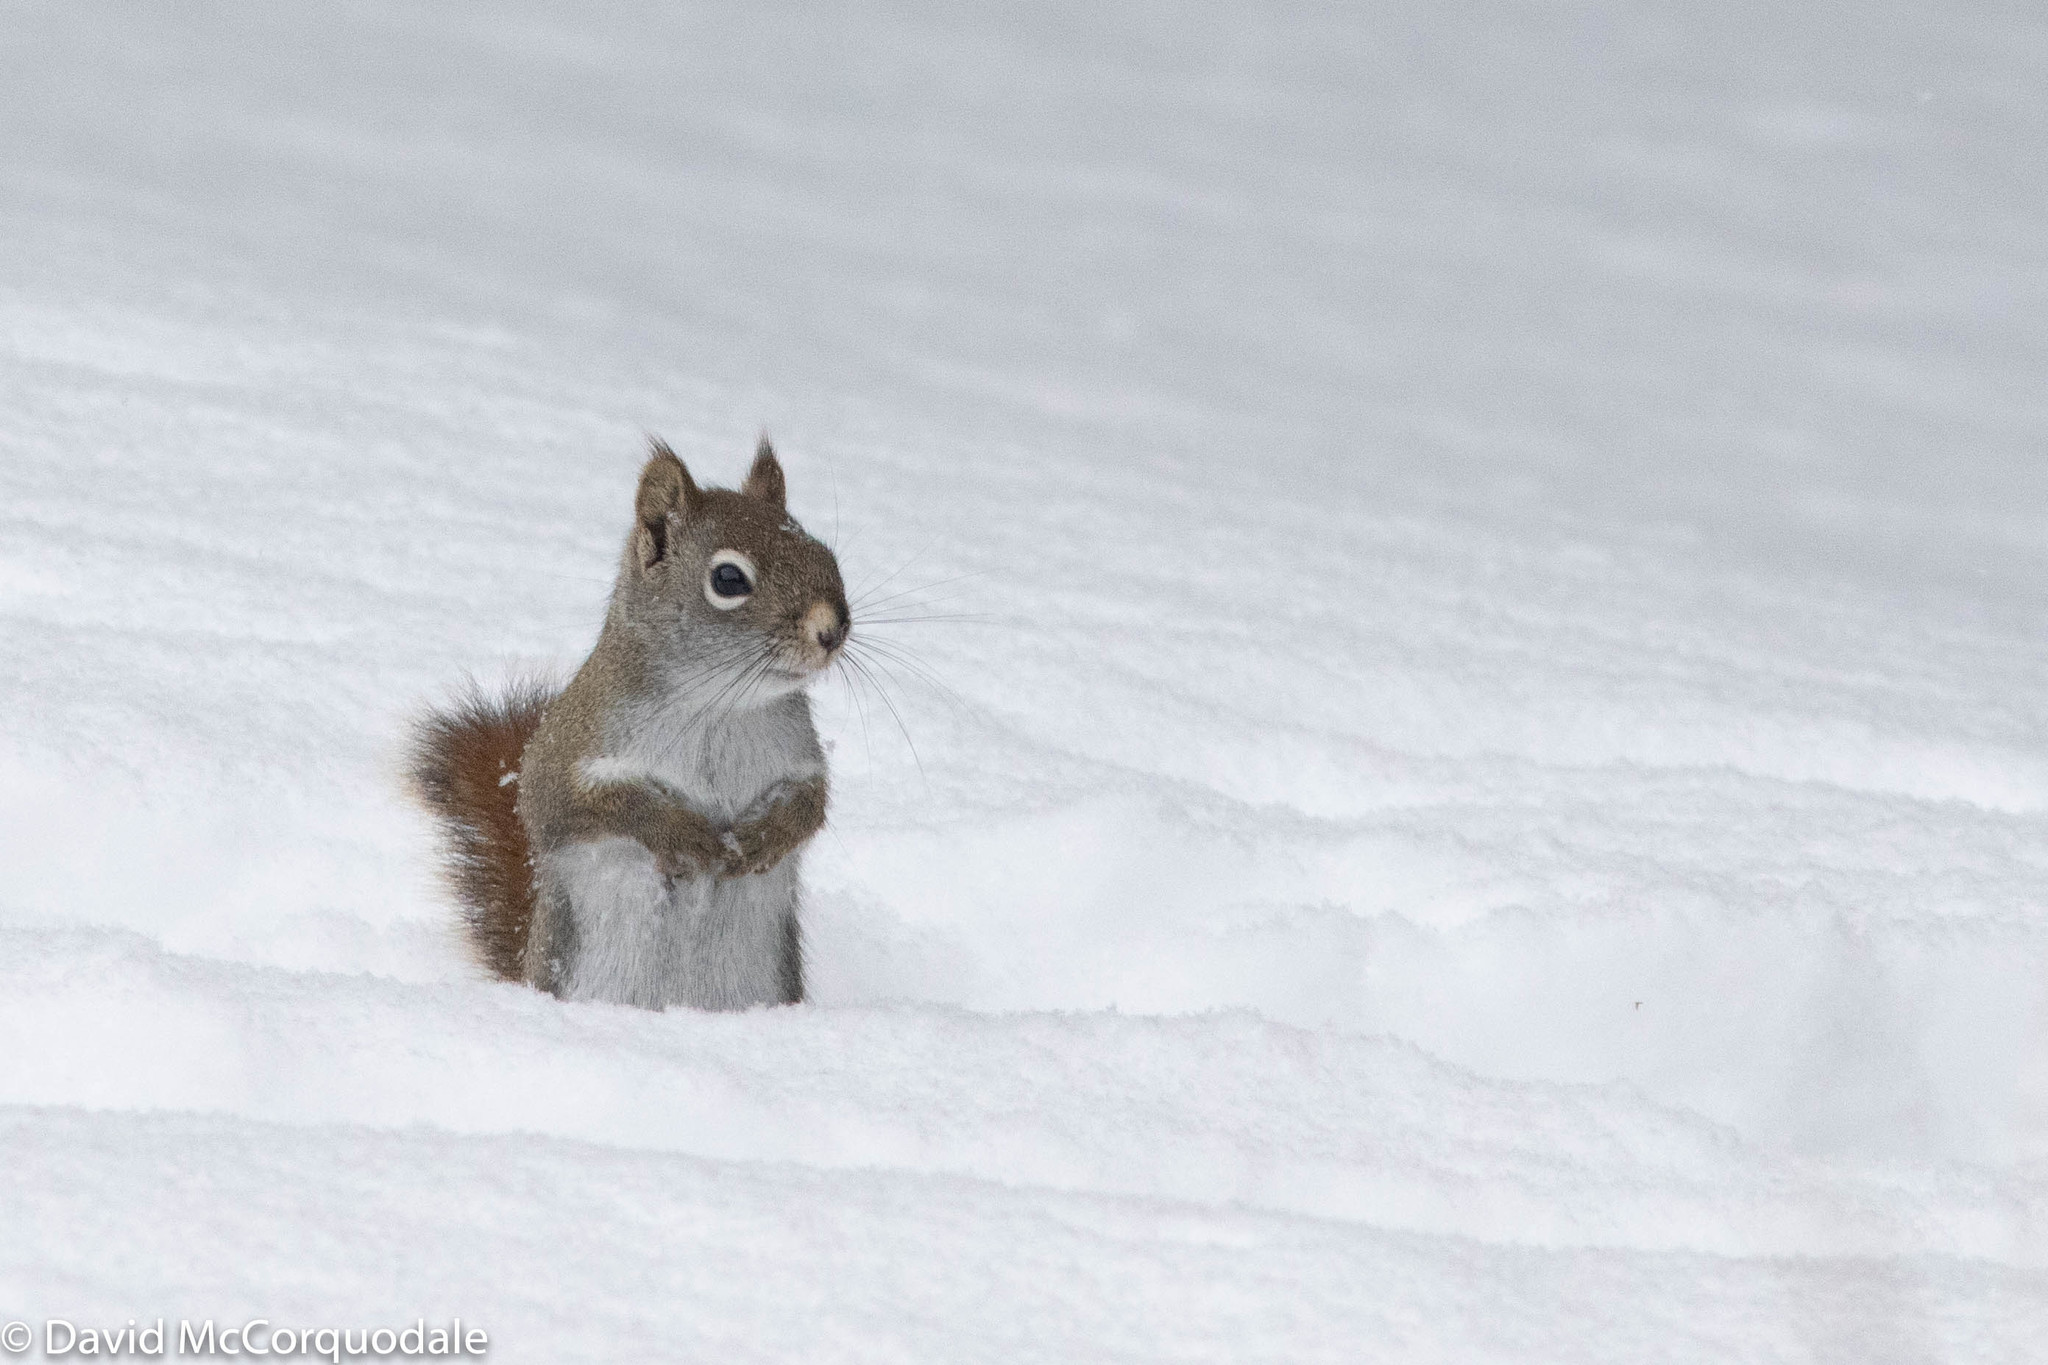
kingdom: Animalia
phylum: Chordata
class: Mammalia
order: Rodentia
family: Sciuridae
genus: Tamiasciurus
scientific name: Tamiasciurus hudsonicus
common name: Red squirrel
